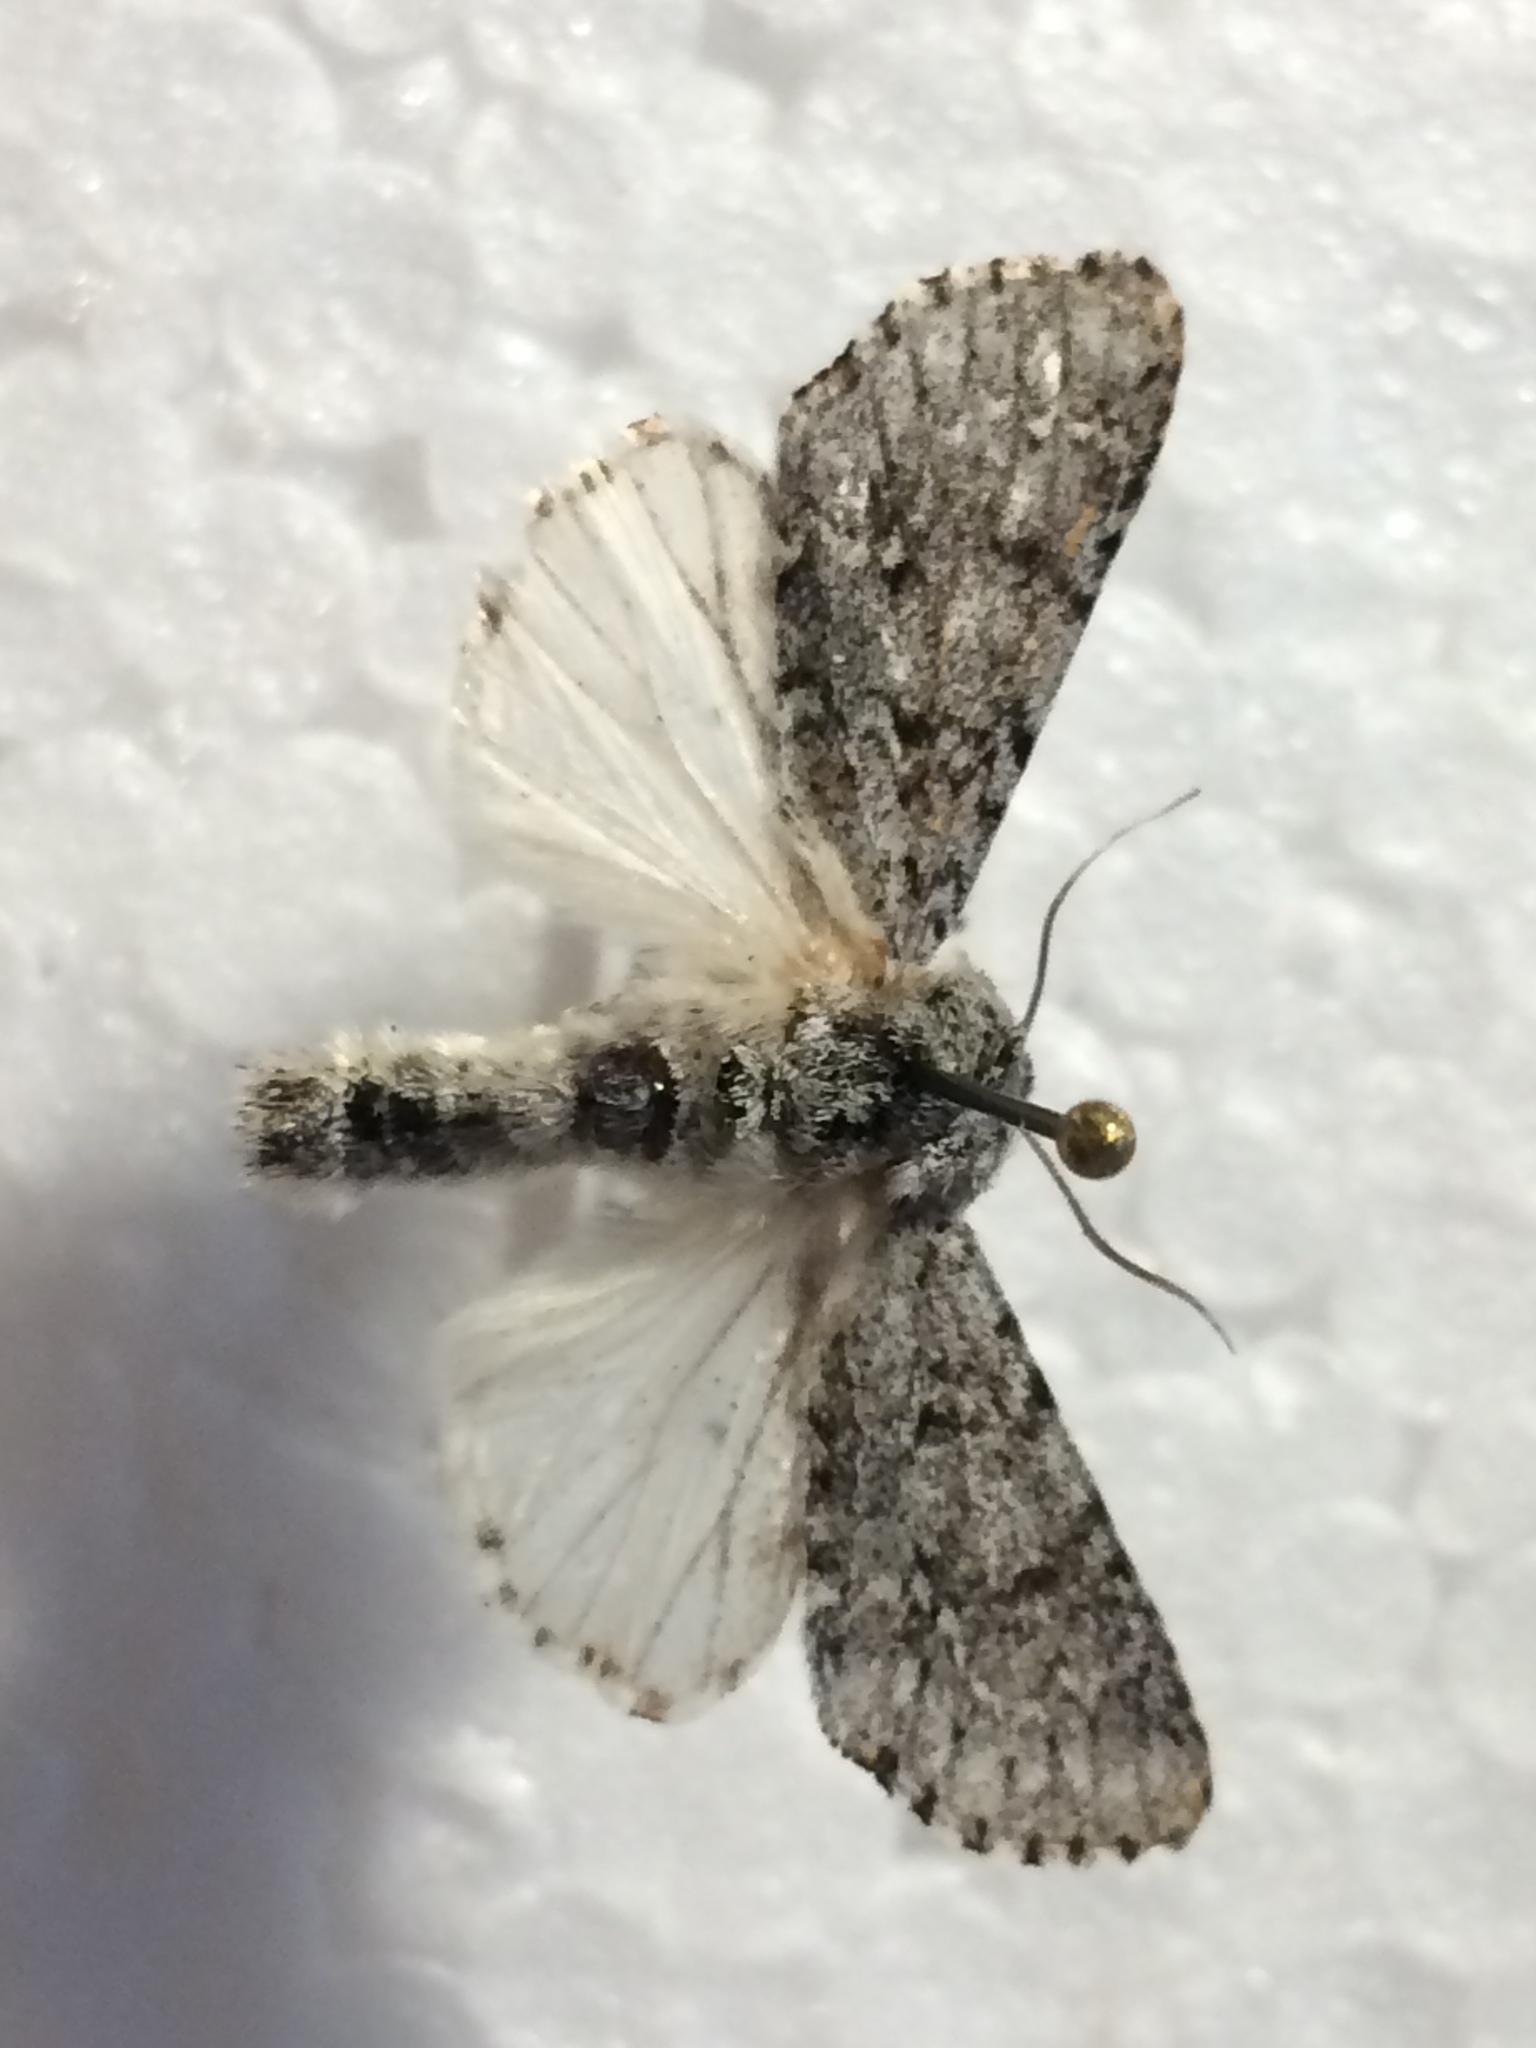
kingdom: Animalia
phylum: Arthropoda
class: Insecta
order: Lepidoptera
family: Noctuidae
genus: Acronicta
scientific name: Acronicta euphorbiae
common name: Sweet gale moth
